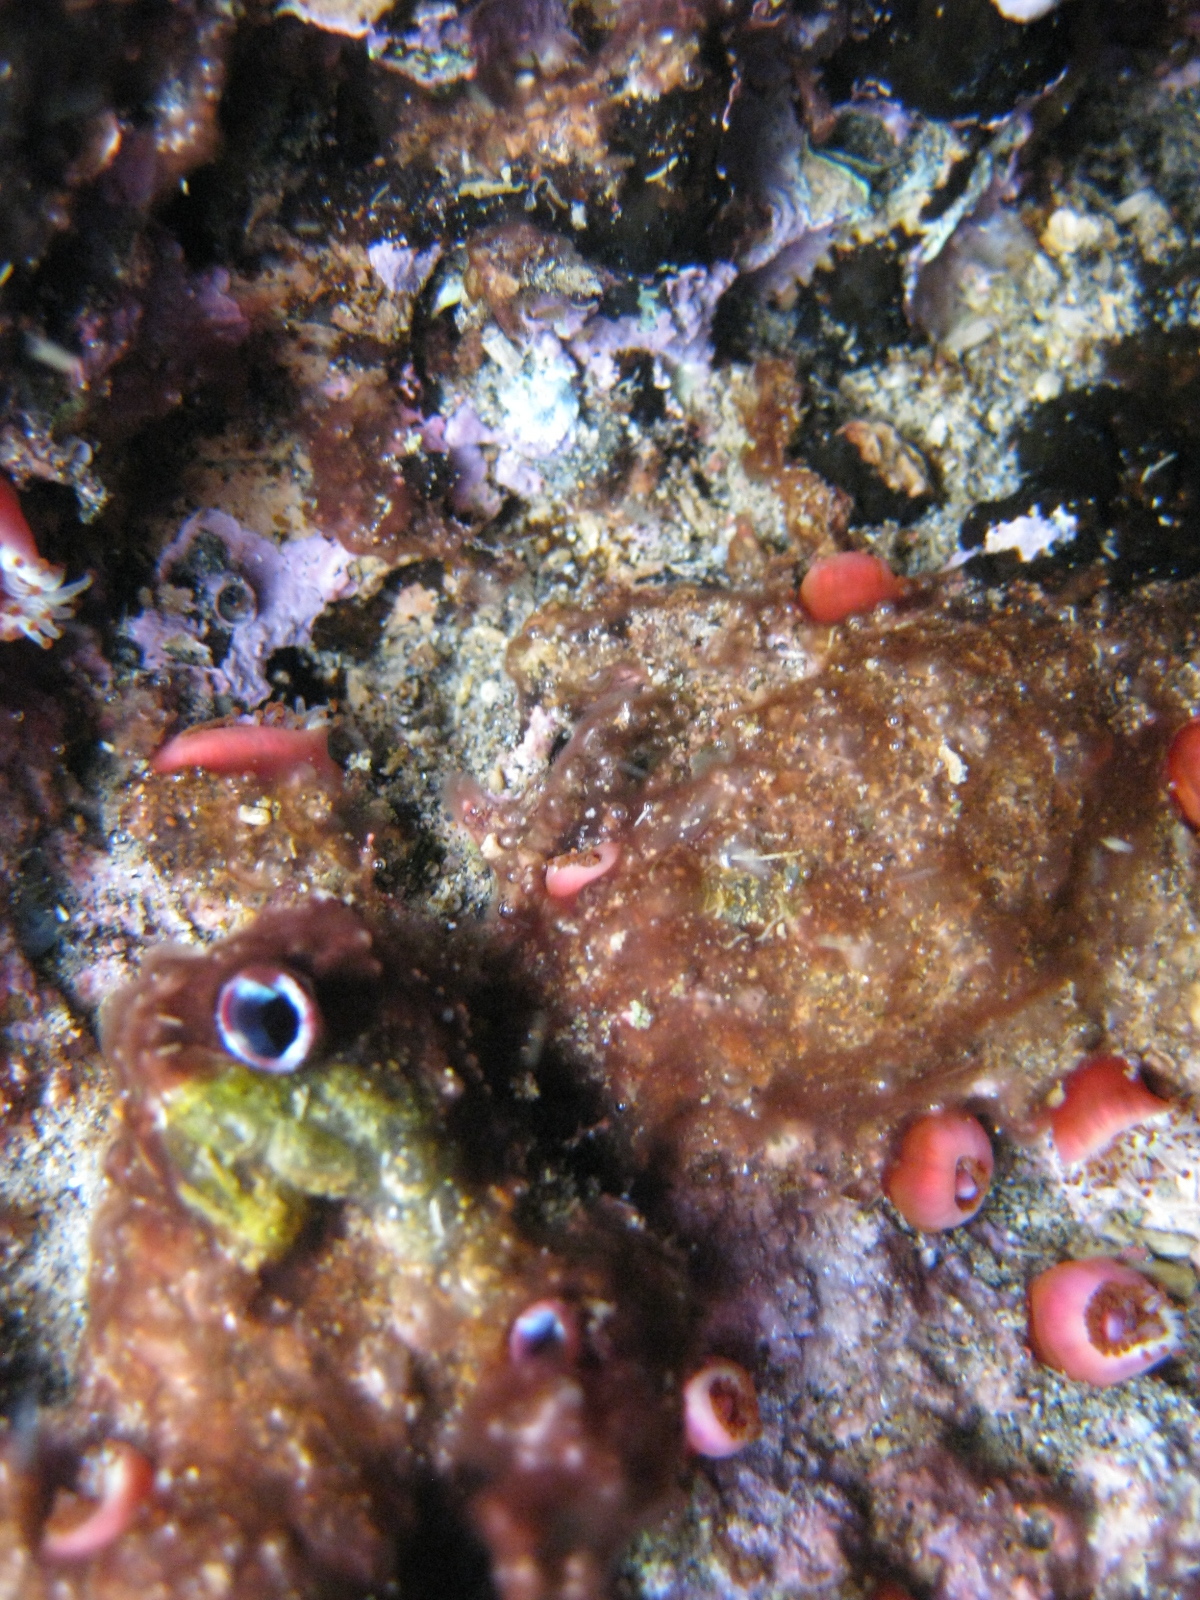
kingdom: Animalia
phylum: Cnidaria
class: Anthozoa
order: Corallimorpharia
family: Corallimorphidae
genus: Corynactis
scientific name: Corynactis australis
